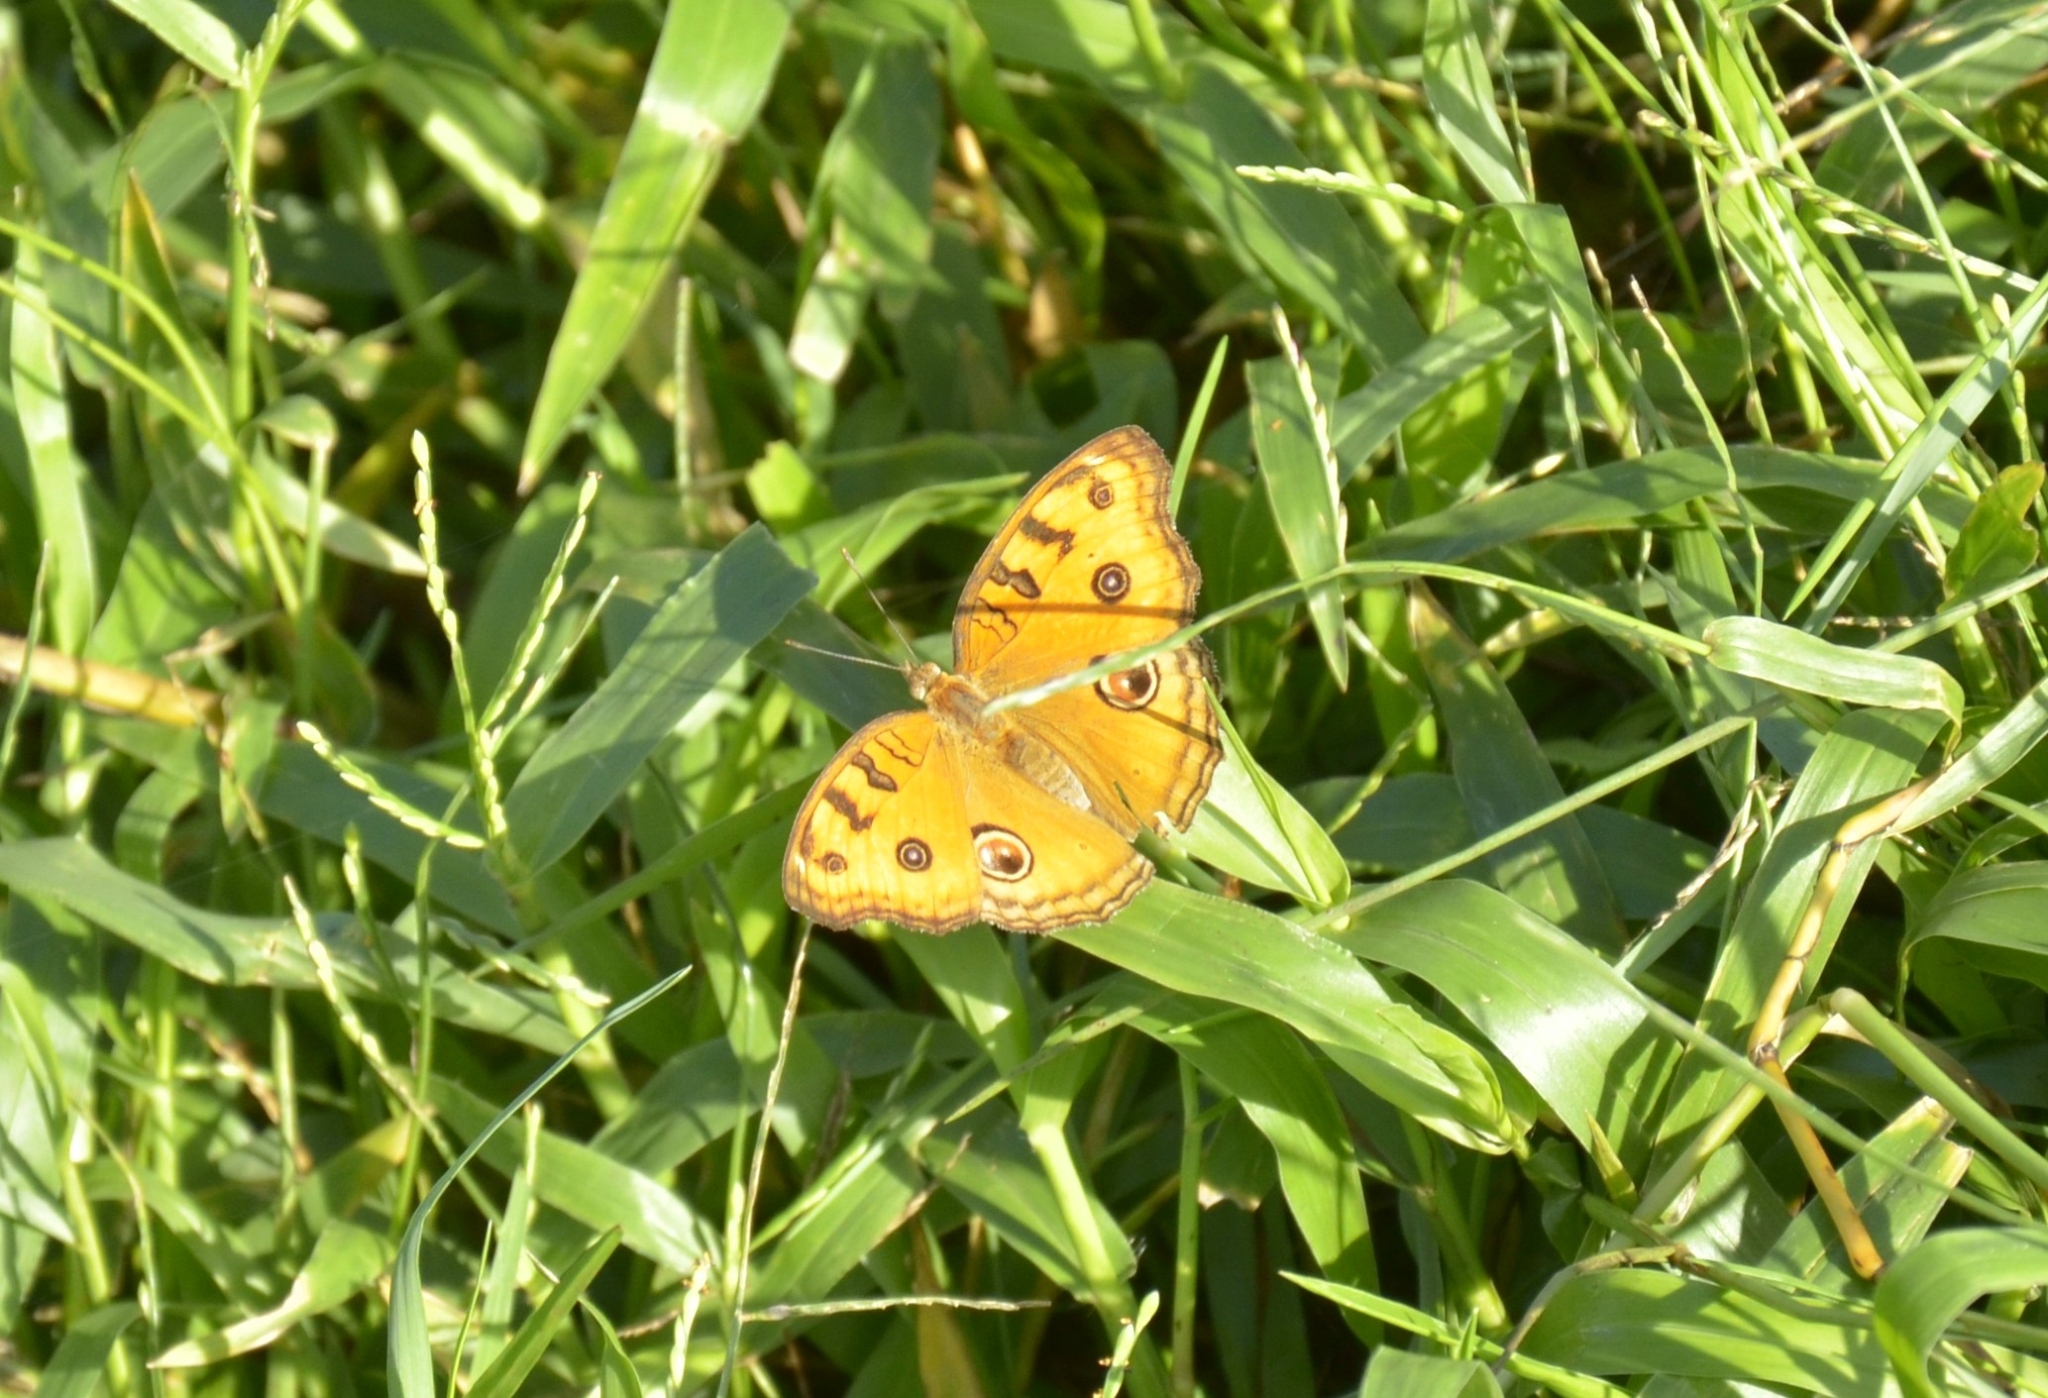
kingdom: Animalia
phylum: Arthropoda
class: Insecta
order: Lepidoptera
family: Nymphalidae
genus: Junonia
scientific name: Junonia almana
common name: Peacock pansy
